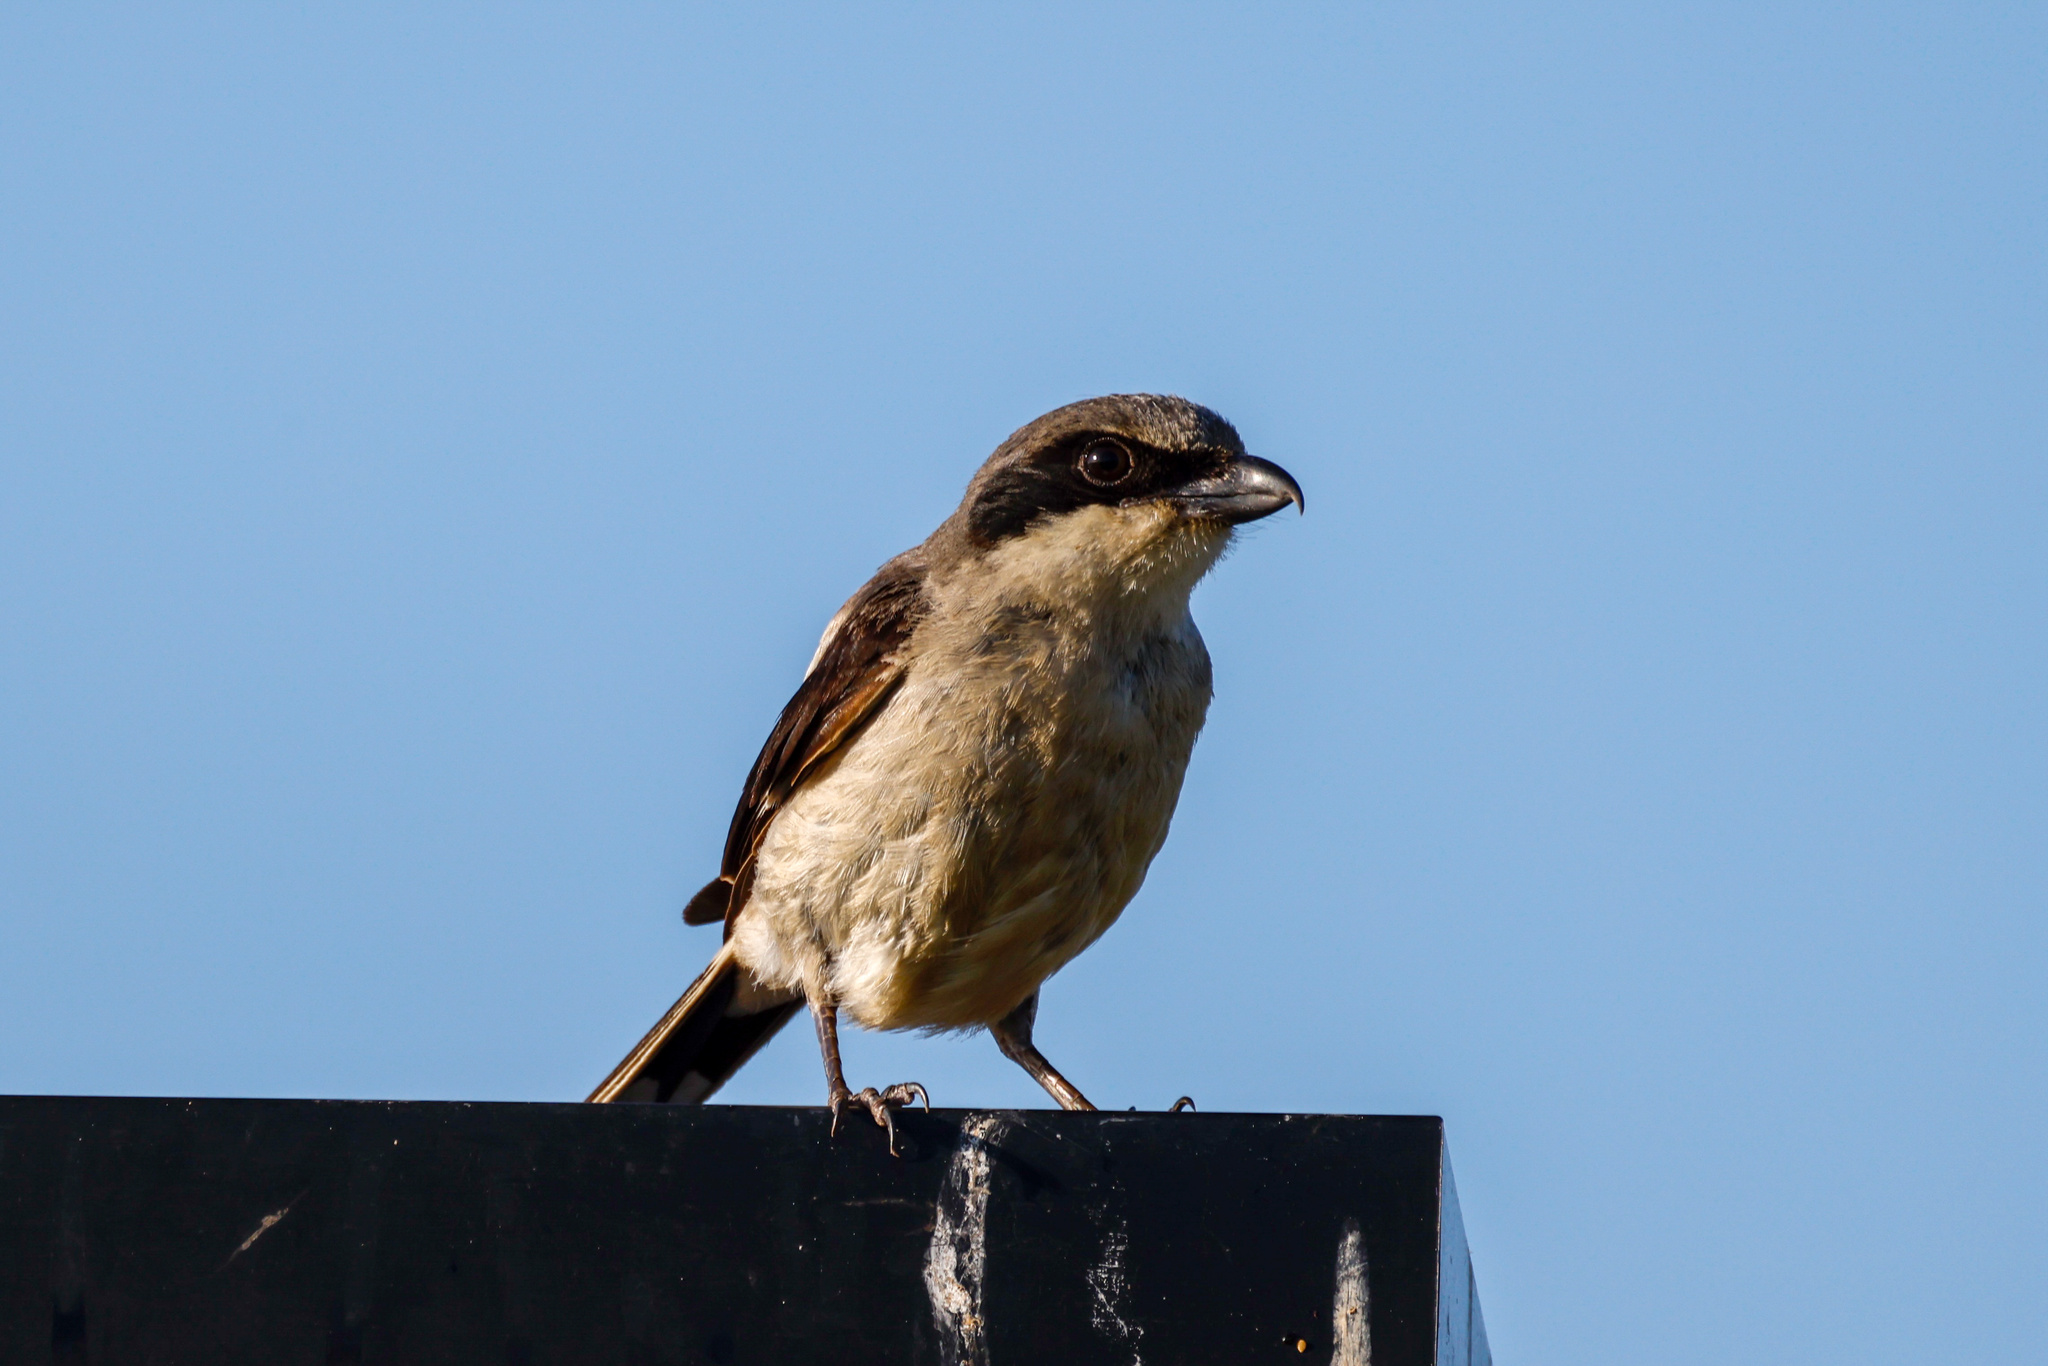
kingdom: Animalia
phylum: Chordata
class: Aves
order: Passeriformes
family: Laniidae
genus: Lanius
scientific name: Lanius ludovicianus
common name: Loggerhead shrike
